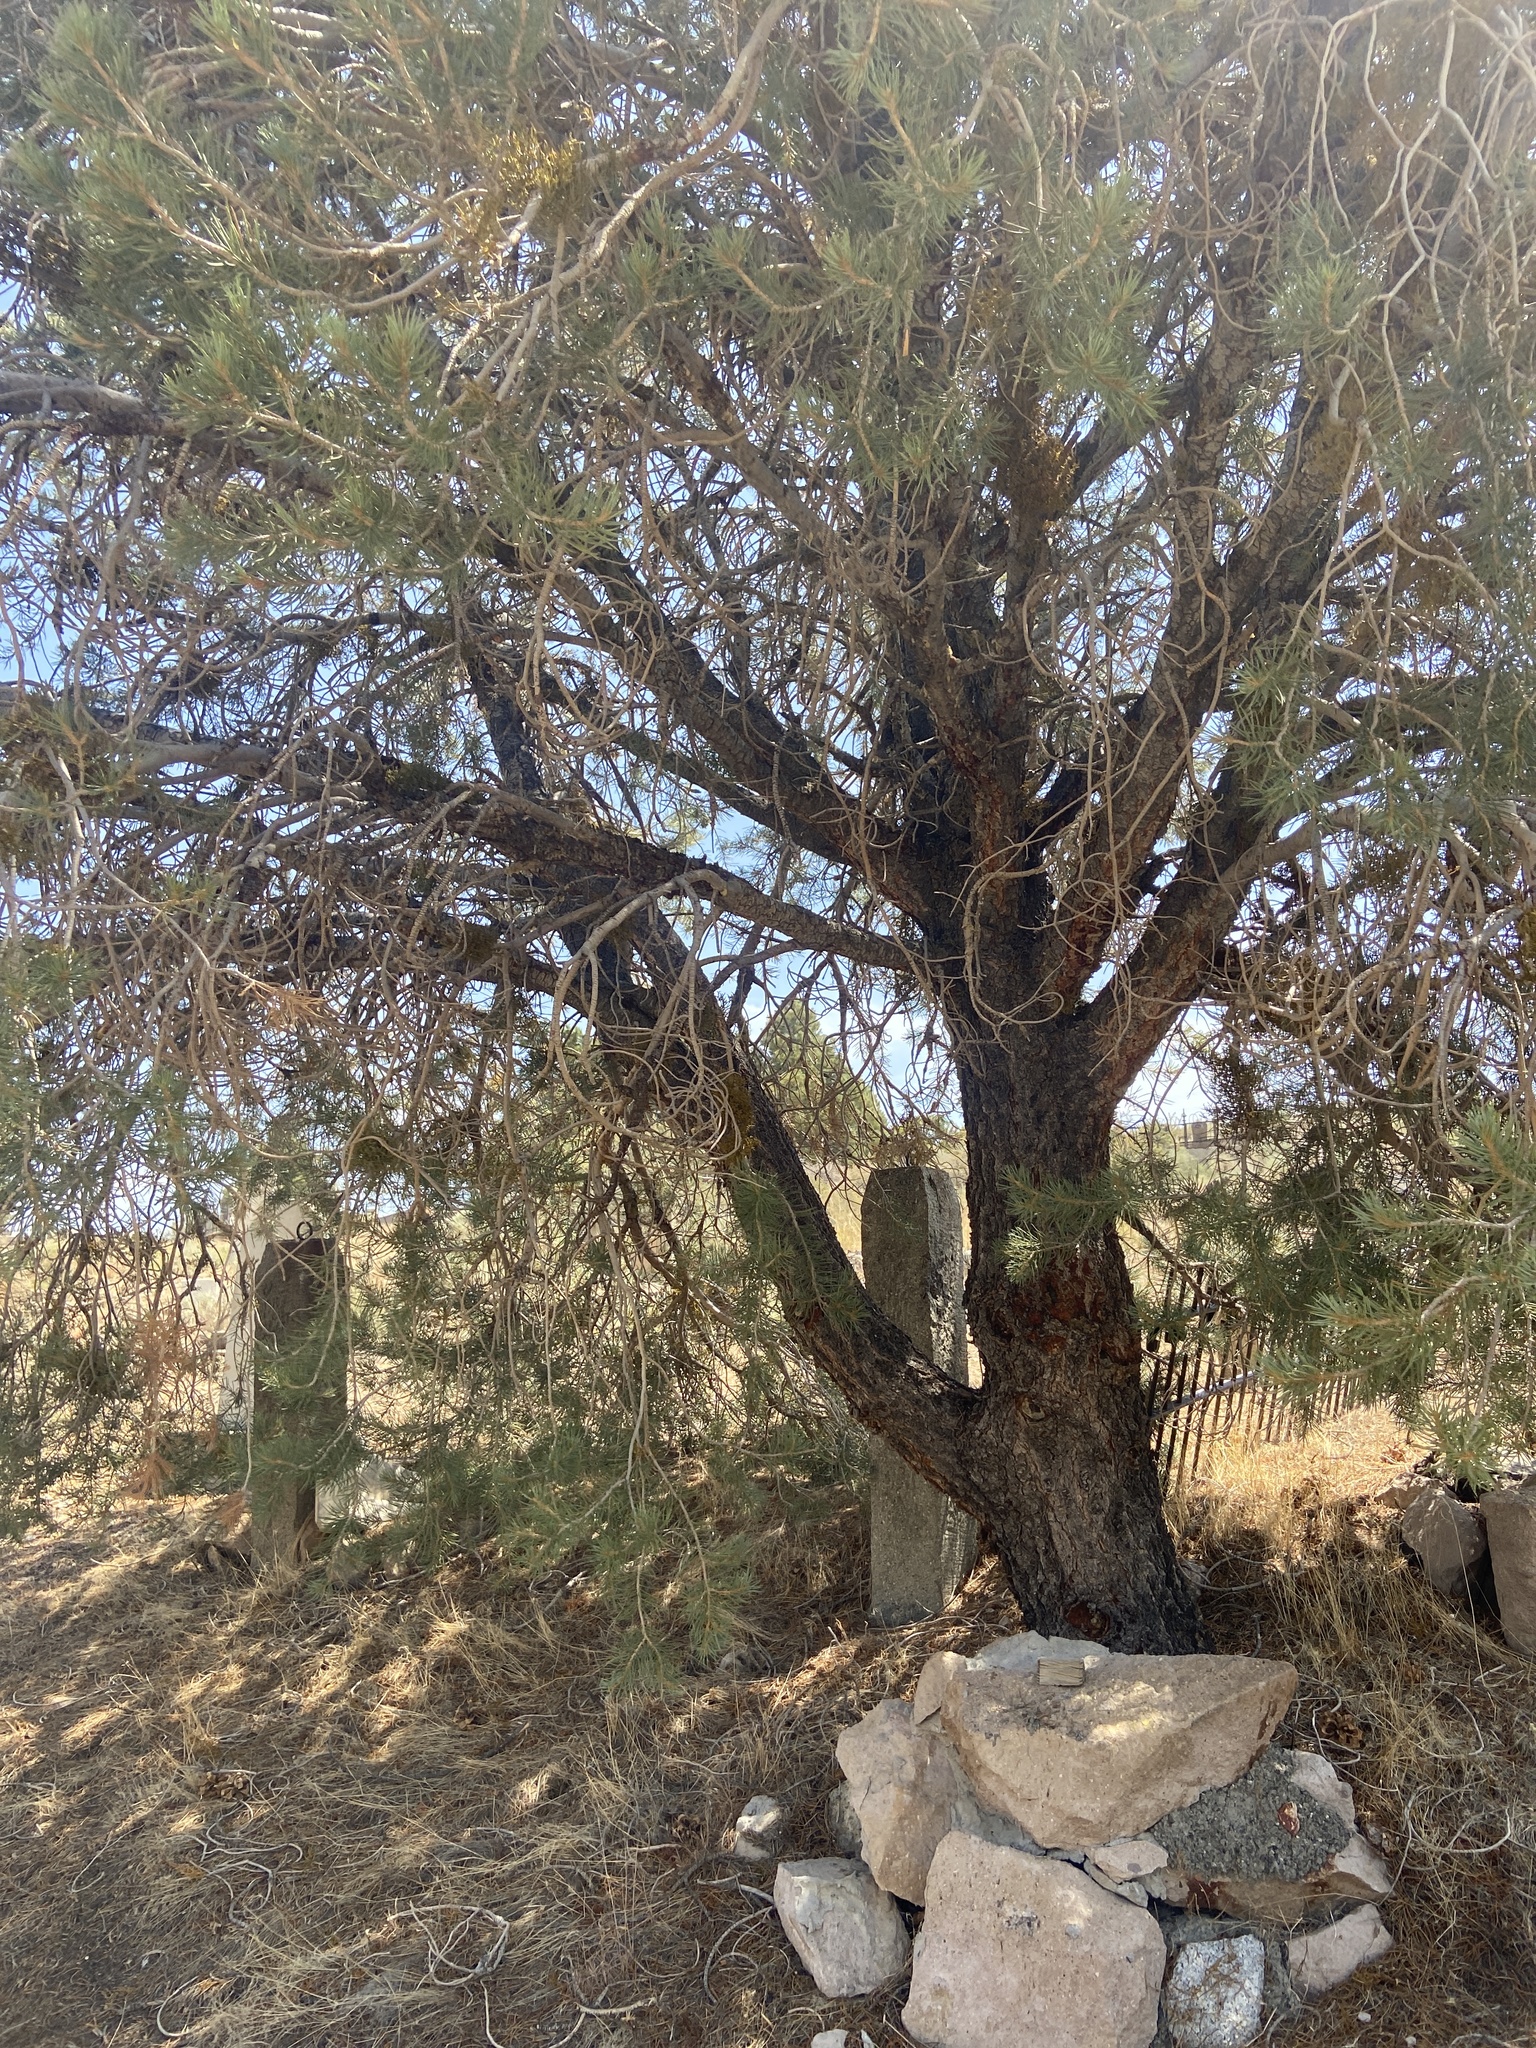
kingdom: Plantae
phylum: Tracheophyta
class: Pinopsida
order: Pinales
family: Pinaceae
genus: Pinus
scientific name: Pinus monophylla
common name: One-leaved nut pine
